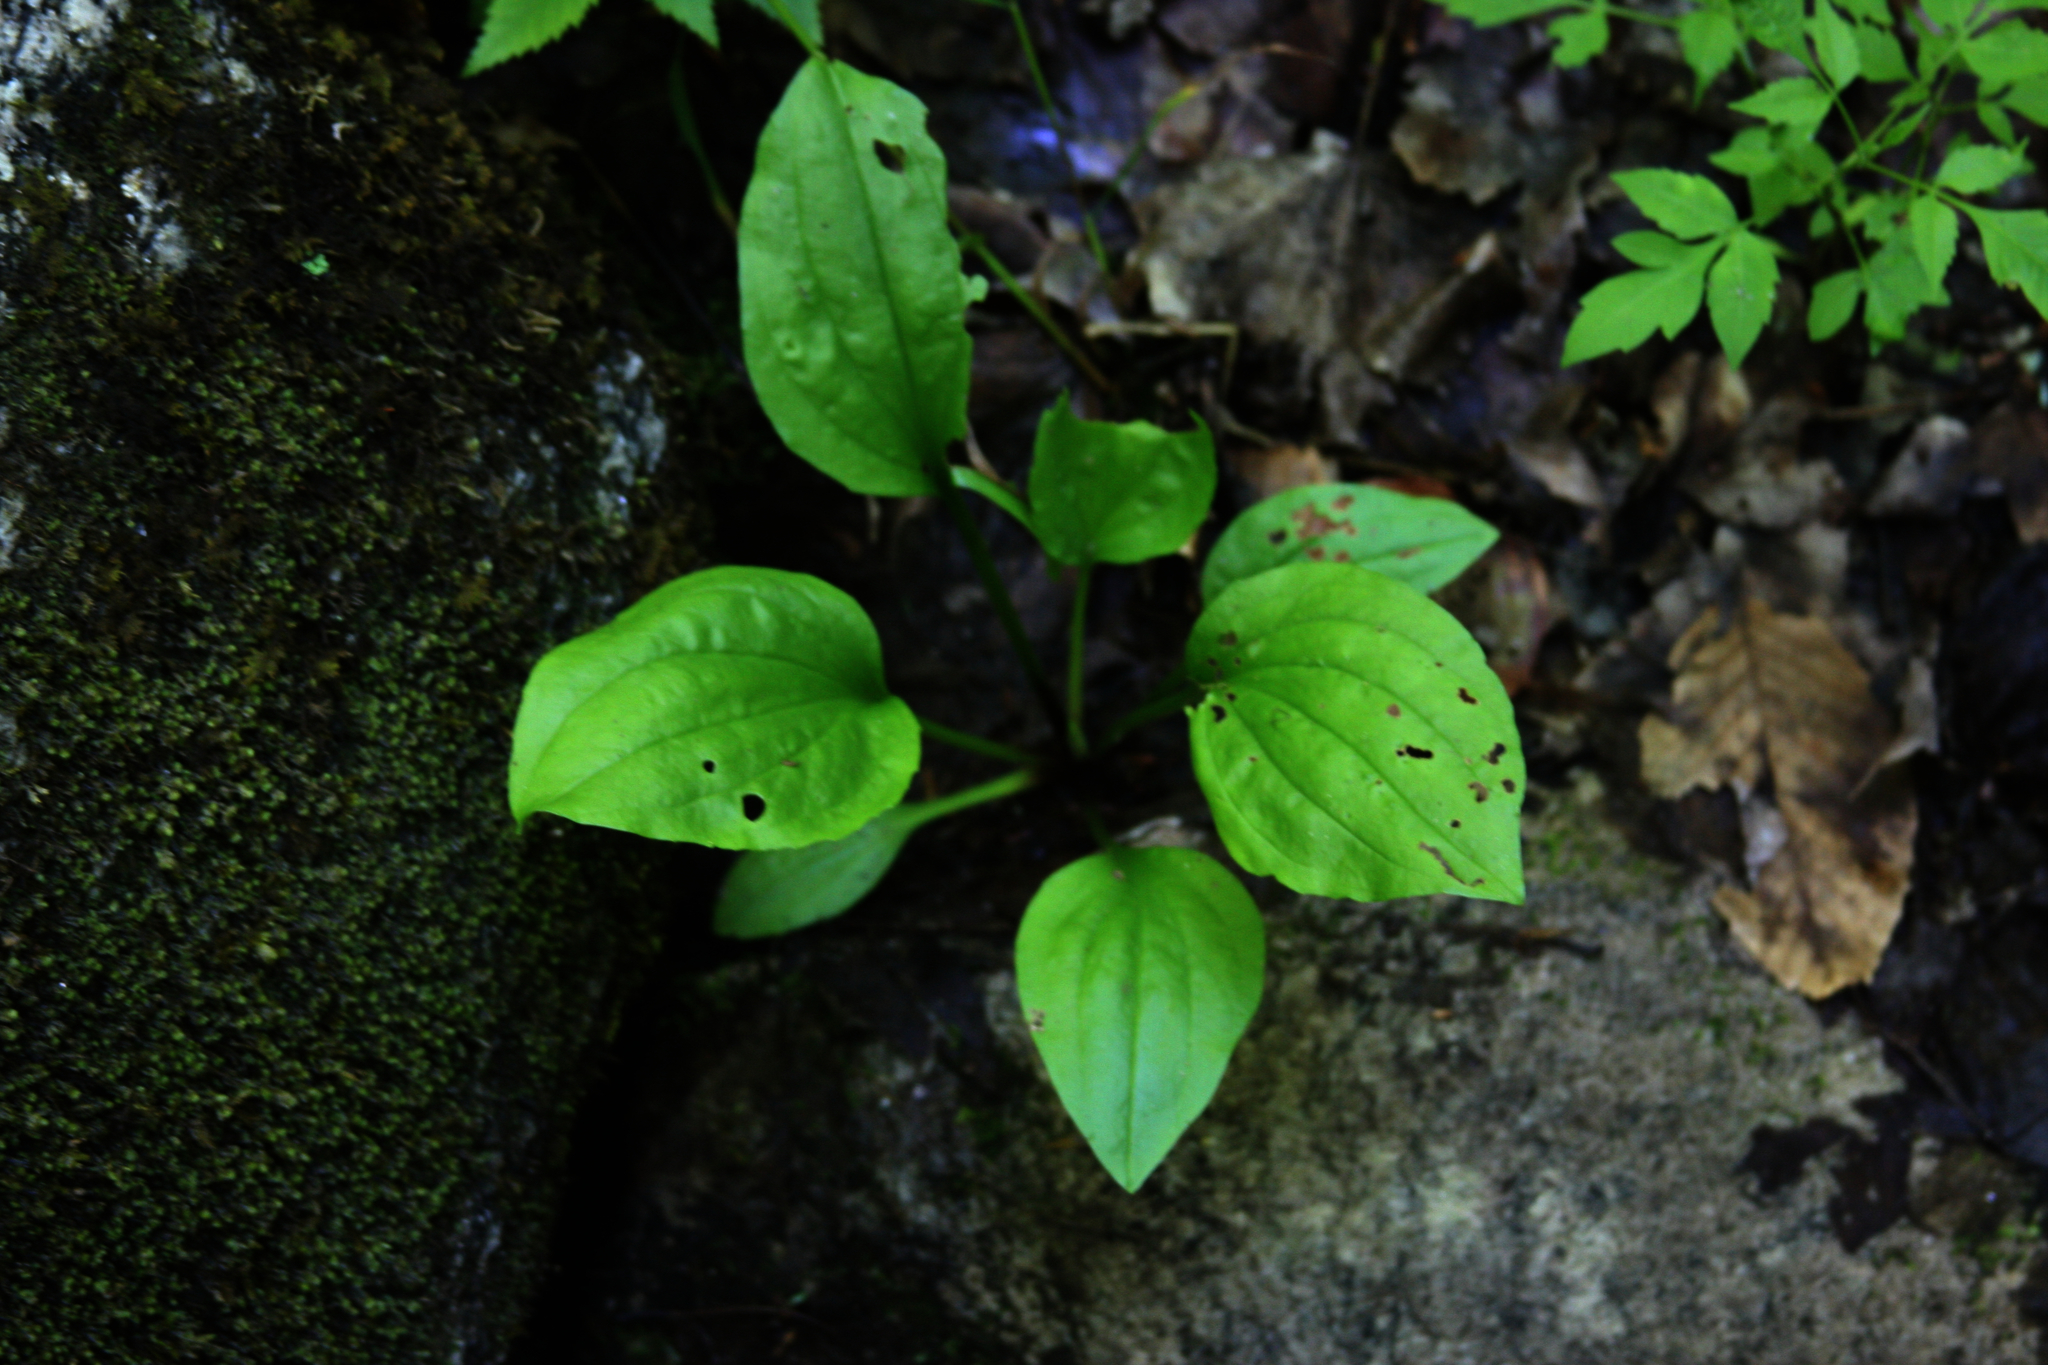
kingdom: Plantae
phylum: Tracheophyta
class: Magnoliopsida
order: Lamiales
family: Plantaginaceae
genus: Plantago
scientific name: Plantago major
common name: Common plantain
